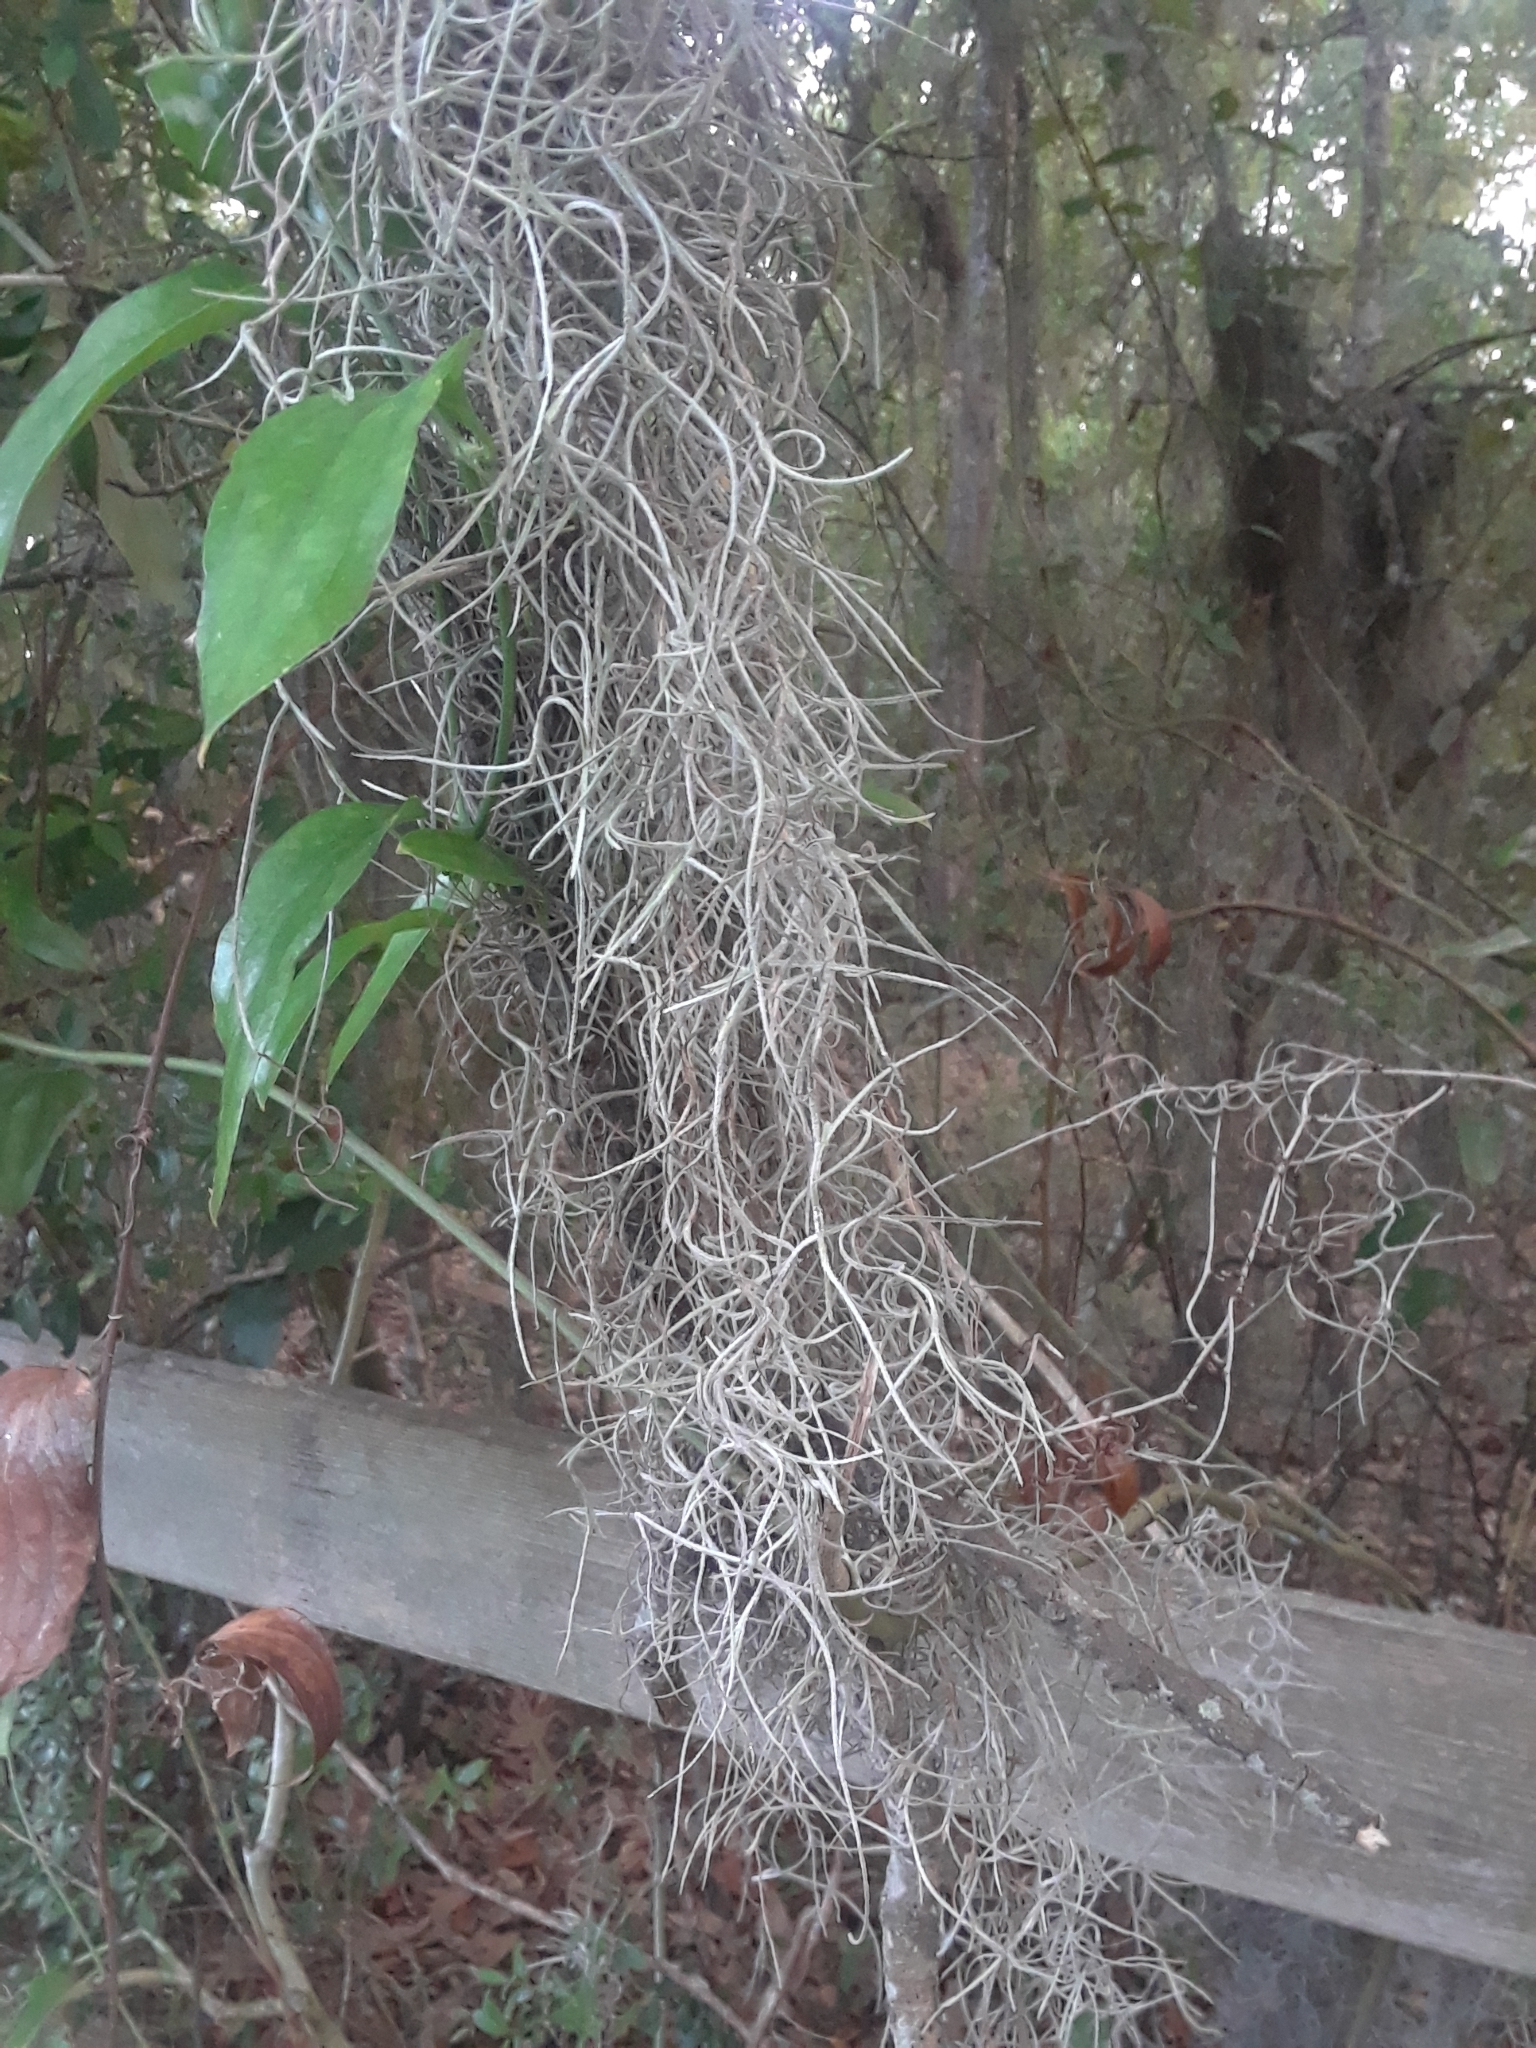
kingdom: Plantae
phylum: Tracheophyta
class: Liliopsida
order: Poales
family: Bromeliaceae
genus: Tillandsia
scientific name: Tillandsia usneoides
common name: Spanish moss
